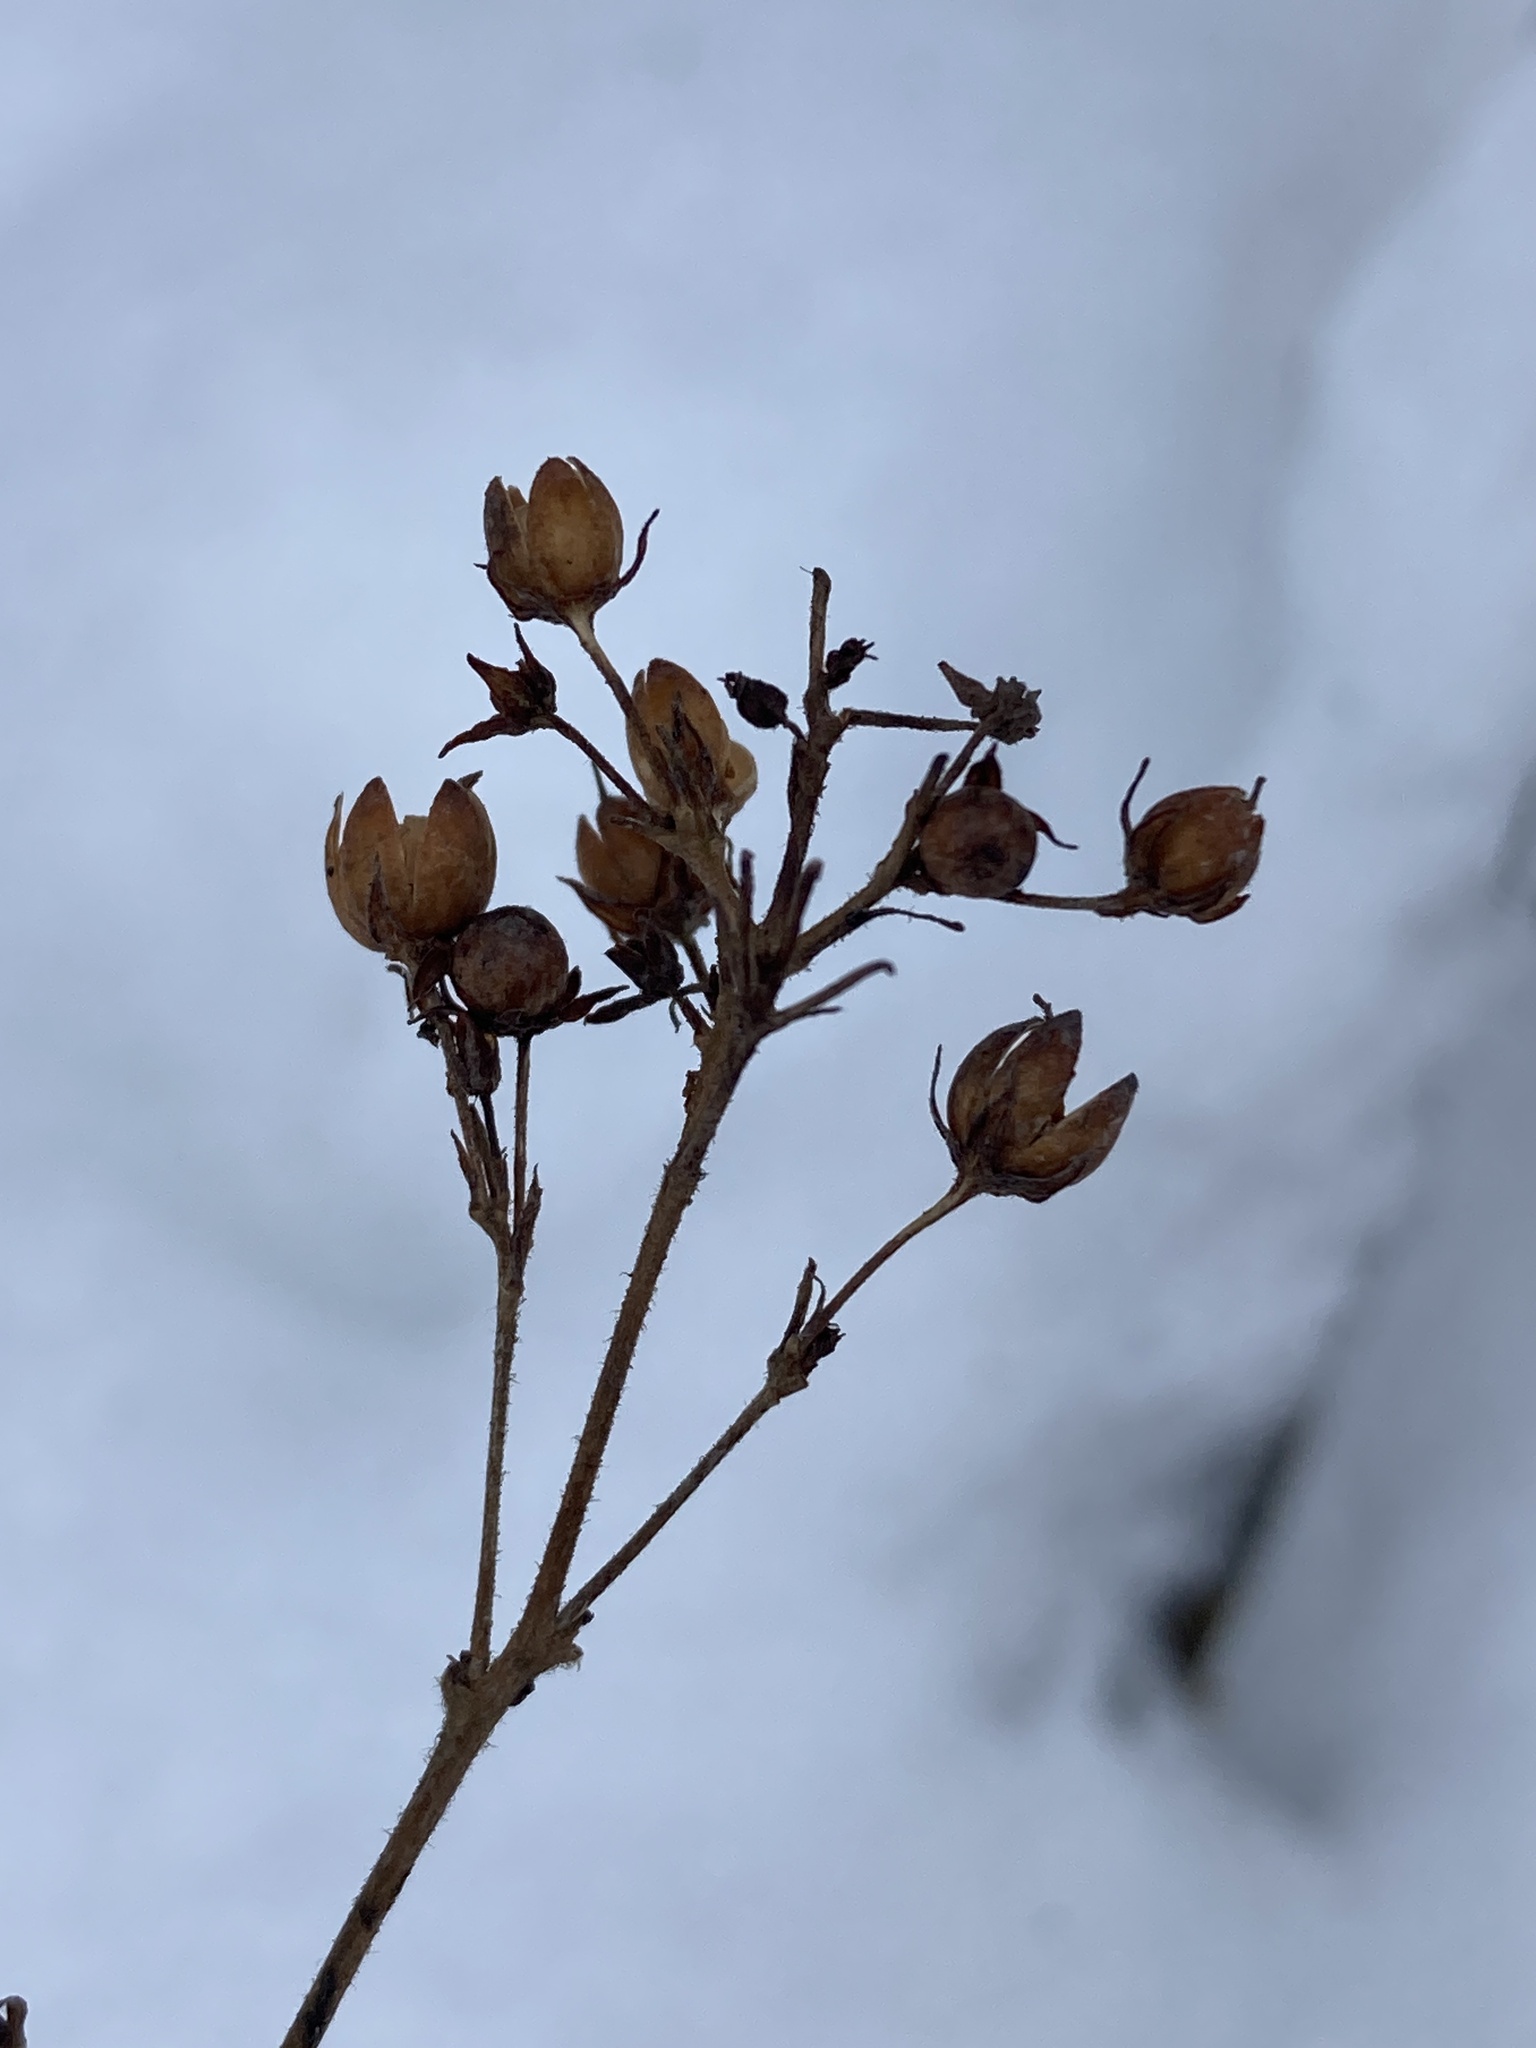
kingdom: Plantae
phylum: Tracheophyta
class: Magnoliopsida
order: Ericales
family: Primulaceae
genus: Lysimachia
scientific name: Lysimachia vulgaris
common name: Yellow loosestrife
